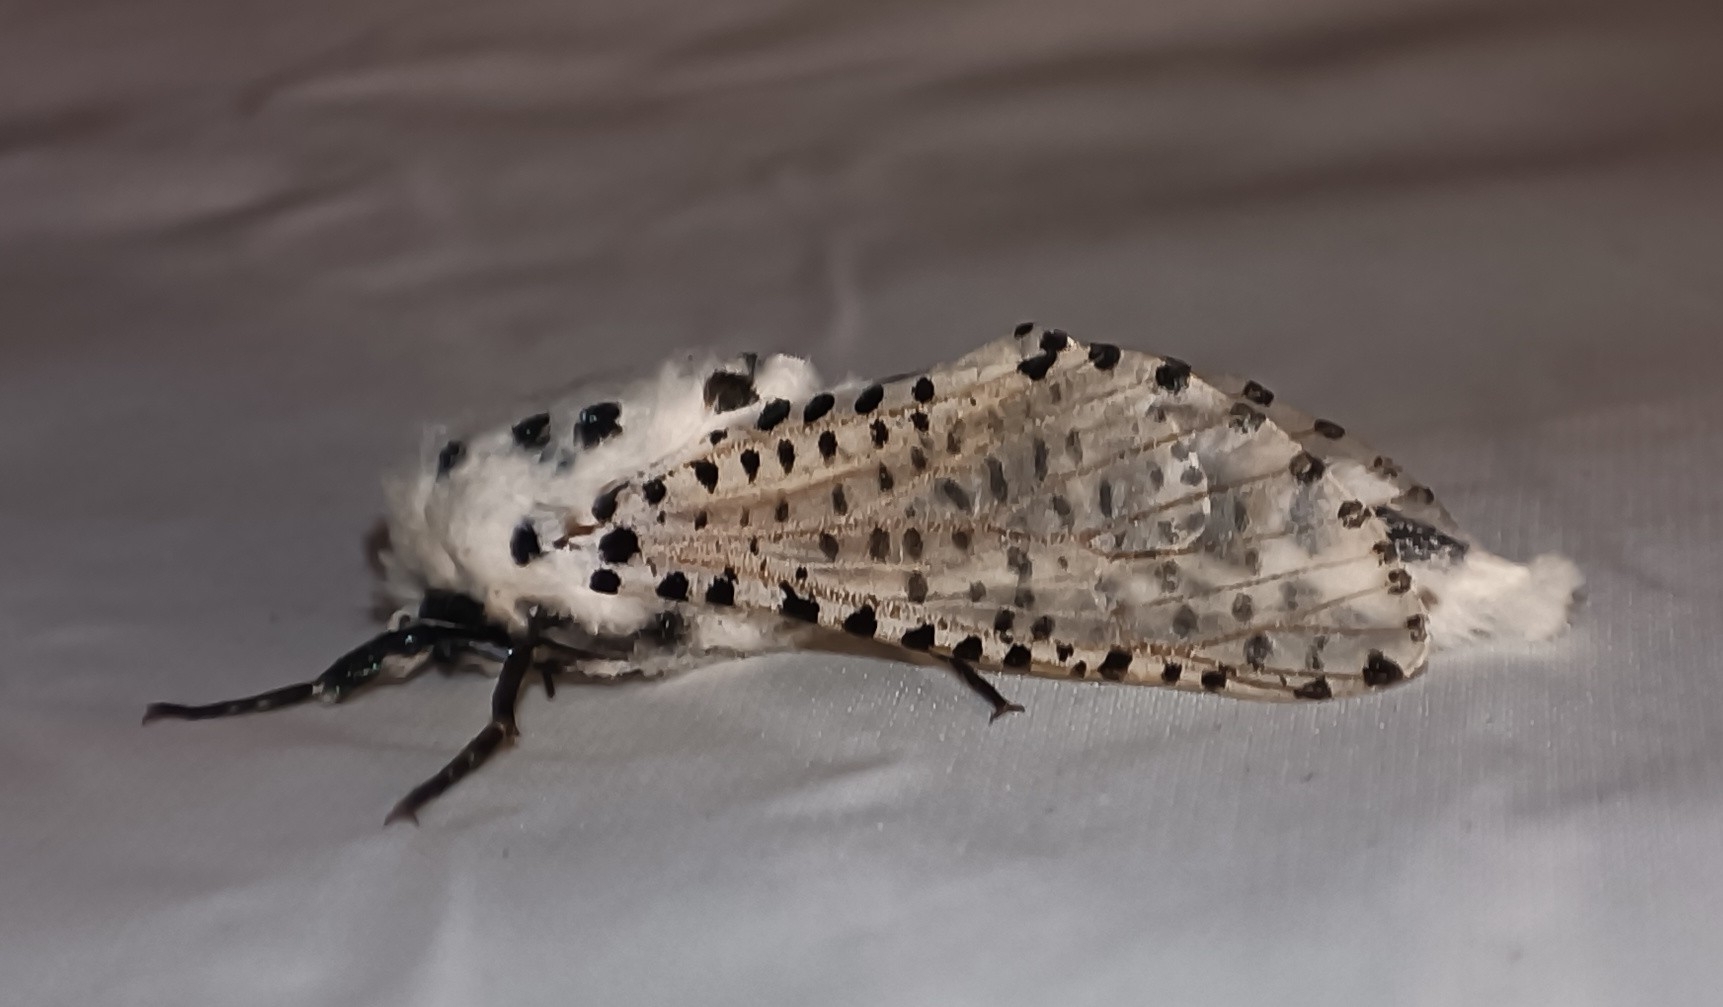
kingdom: Animalia
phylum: Arthropoda
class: Insecta
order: Lepidoptera
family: Cossidae
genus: Zeuzera
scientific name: Zeuzera pyrina
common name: Leopard moth
